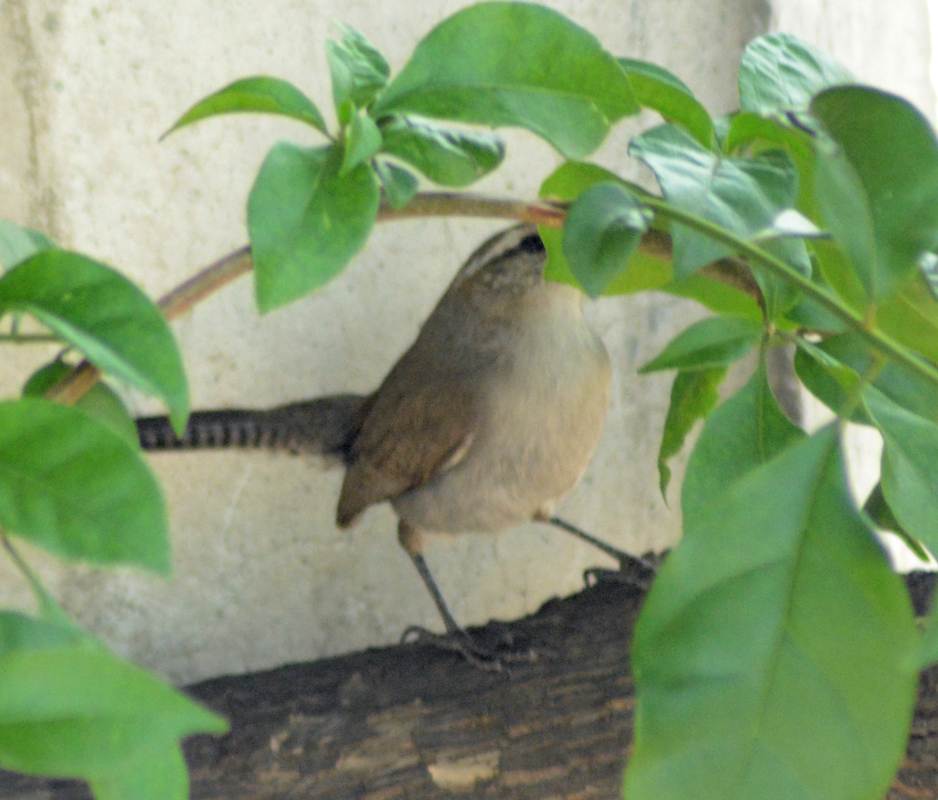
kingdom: Animalia
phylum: Chordata
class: Aves
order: Passeriformes
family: Troglodytidae
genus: Thryomanes
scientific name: Thryomanes bewickii
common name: Bewick's wren
